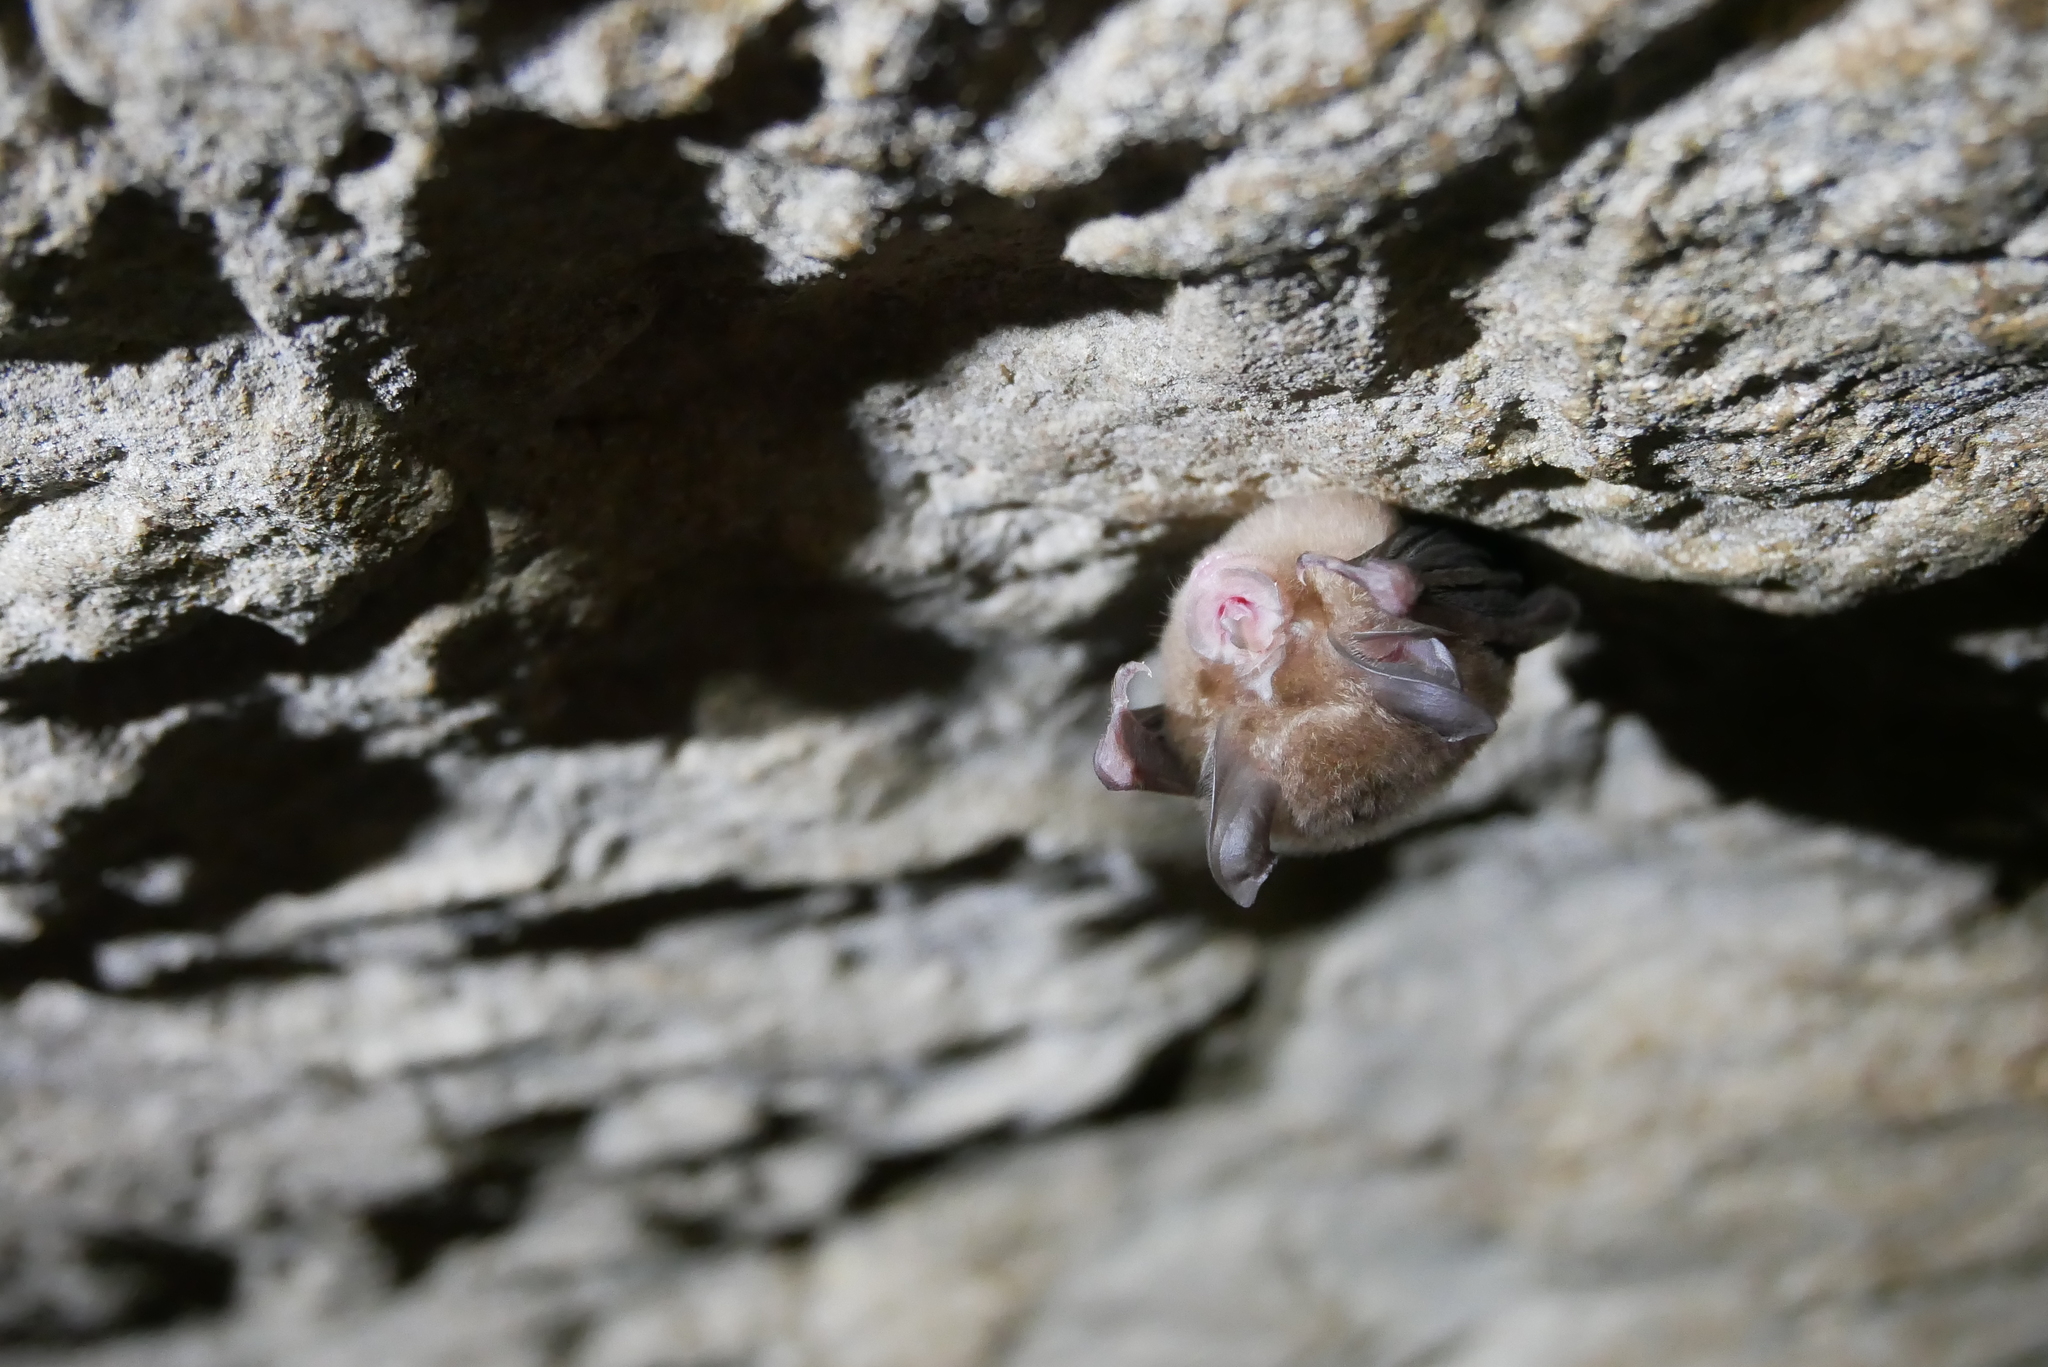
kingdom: Animalia
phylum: Chordata
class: Mammalia
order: Chiroptera
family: Rhinolophidae
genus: Rhinolophus
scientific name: Rhinolophus monoceros
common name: Formosan lesser horseshoe bat
